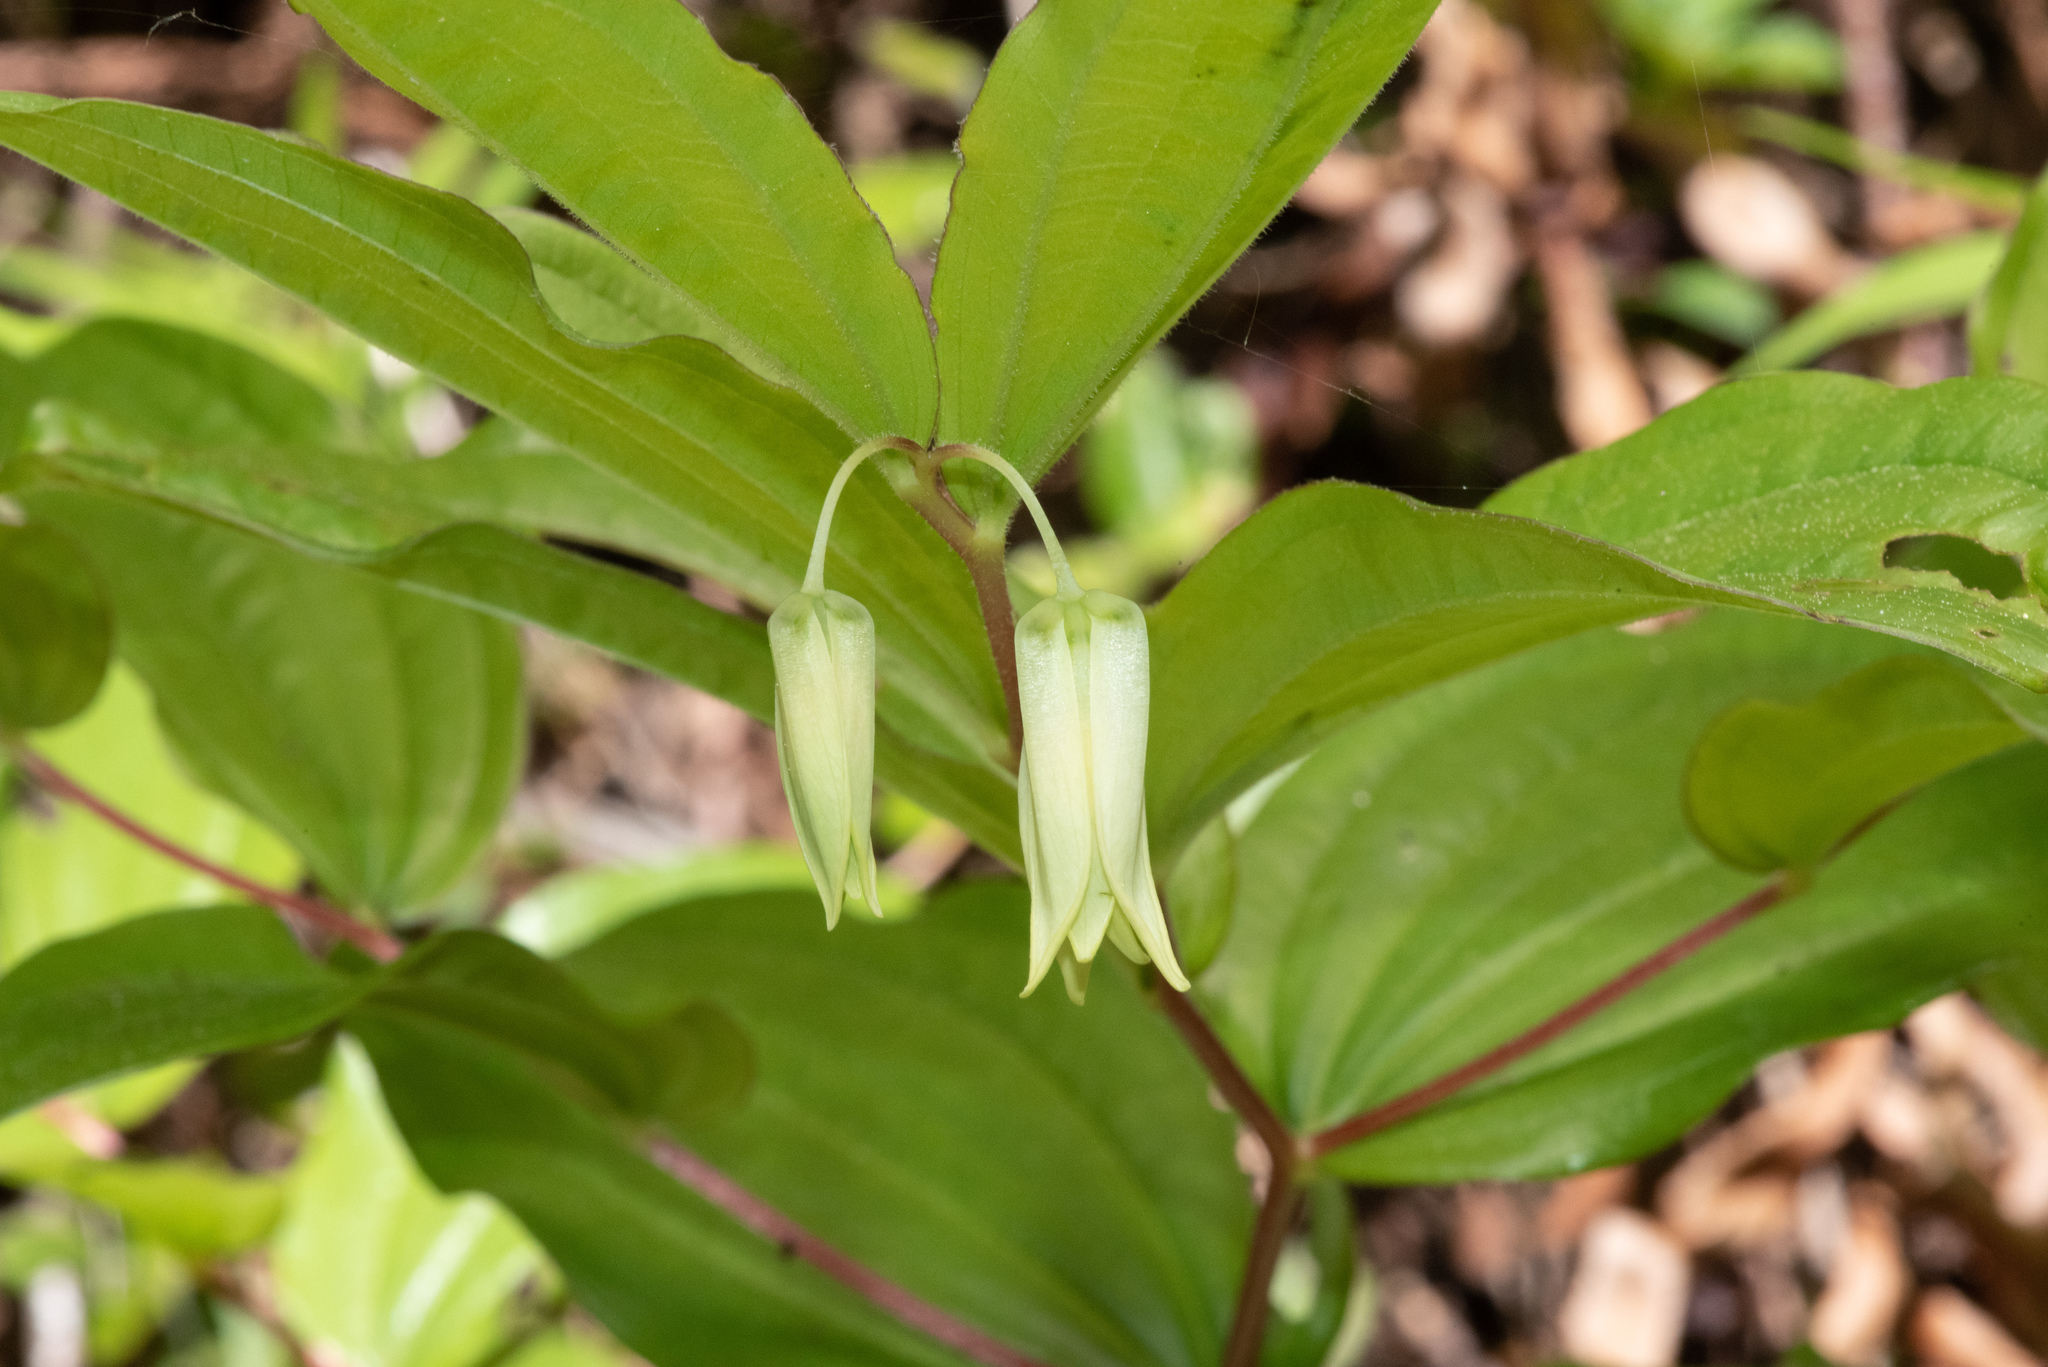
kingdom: Plantae
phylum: Tracheophyta
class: Liliopsida
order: Liliales
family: Liliaceae
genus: Prosartes
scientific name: Prosartes smithii
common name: Fairy-lantern
